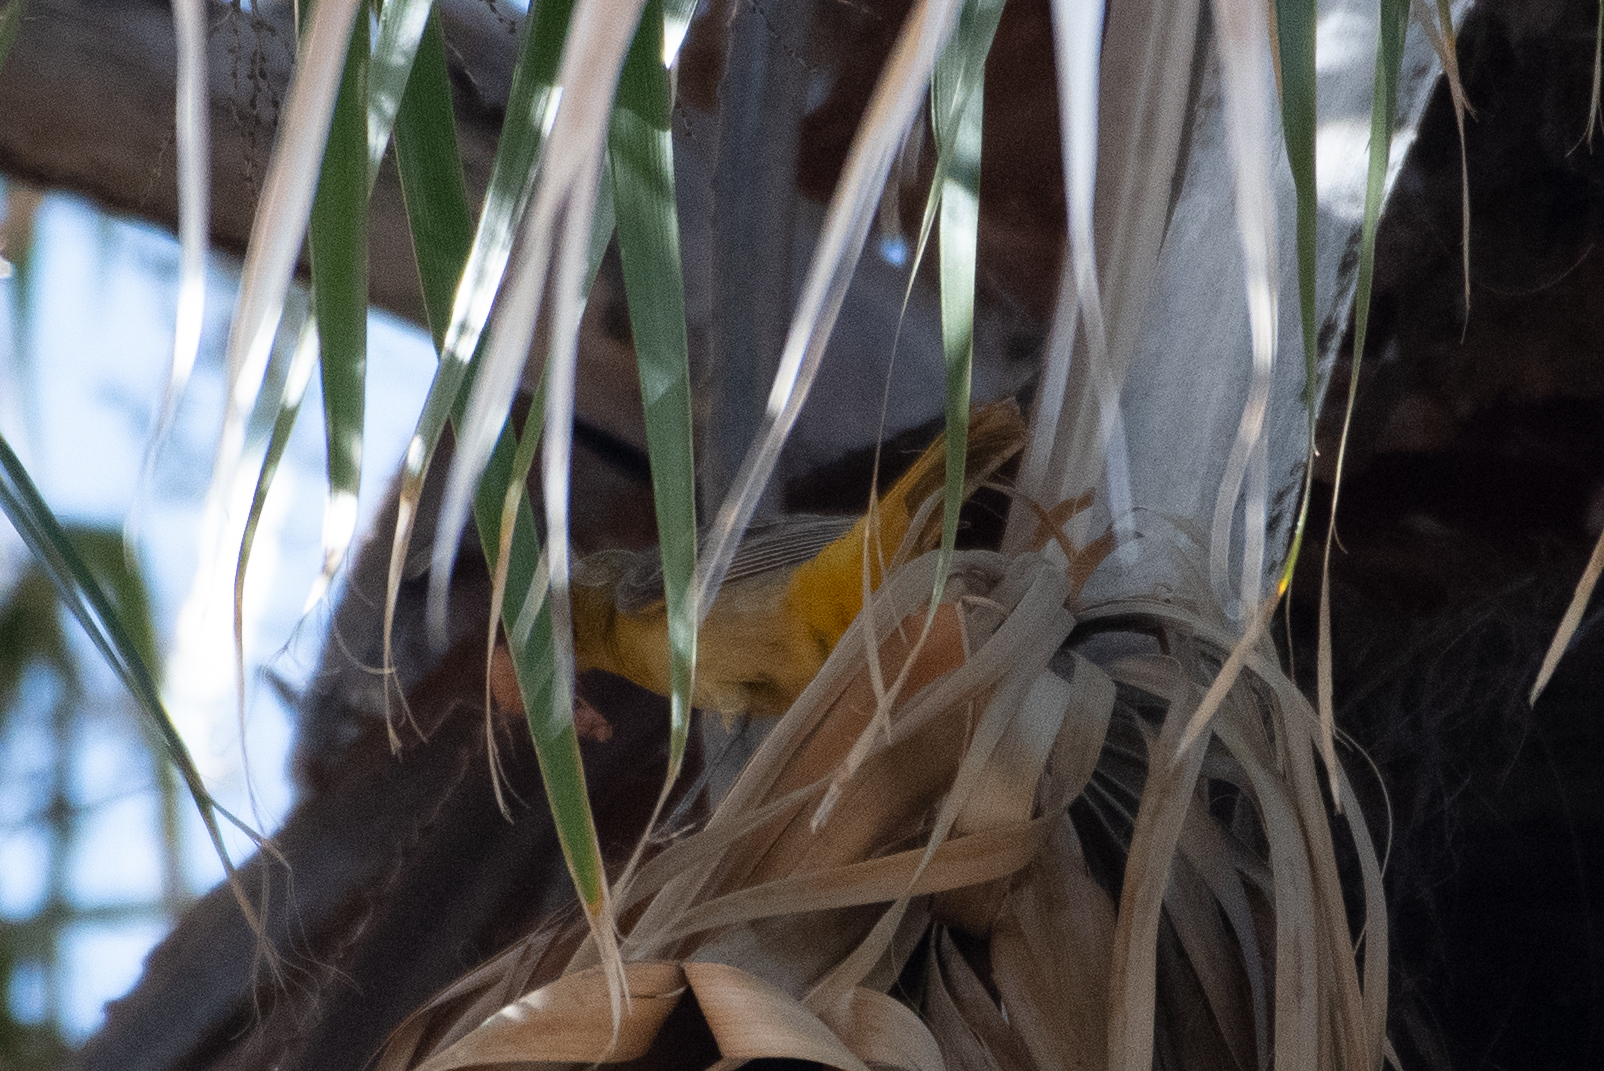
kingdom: Animalia
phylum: Chordata
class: Aves
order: Passeriformes
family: Icteridae
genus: Icterus
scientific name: Icterus cucullatus
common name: Hooded oriole
